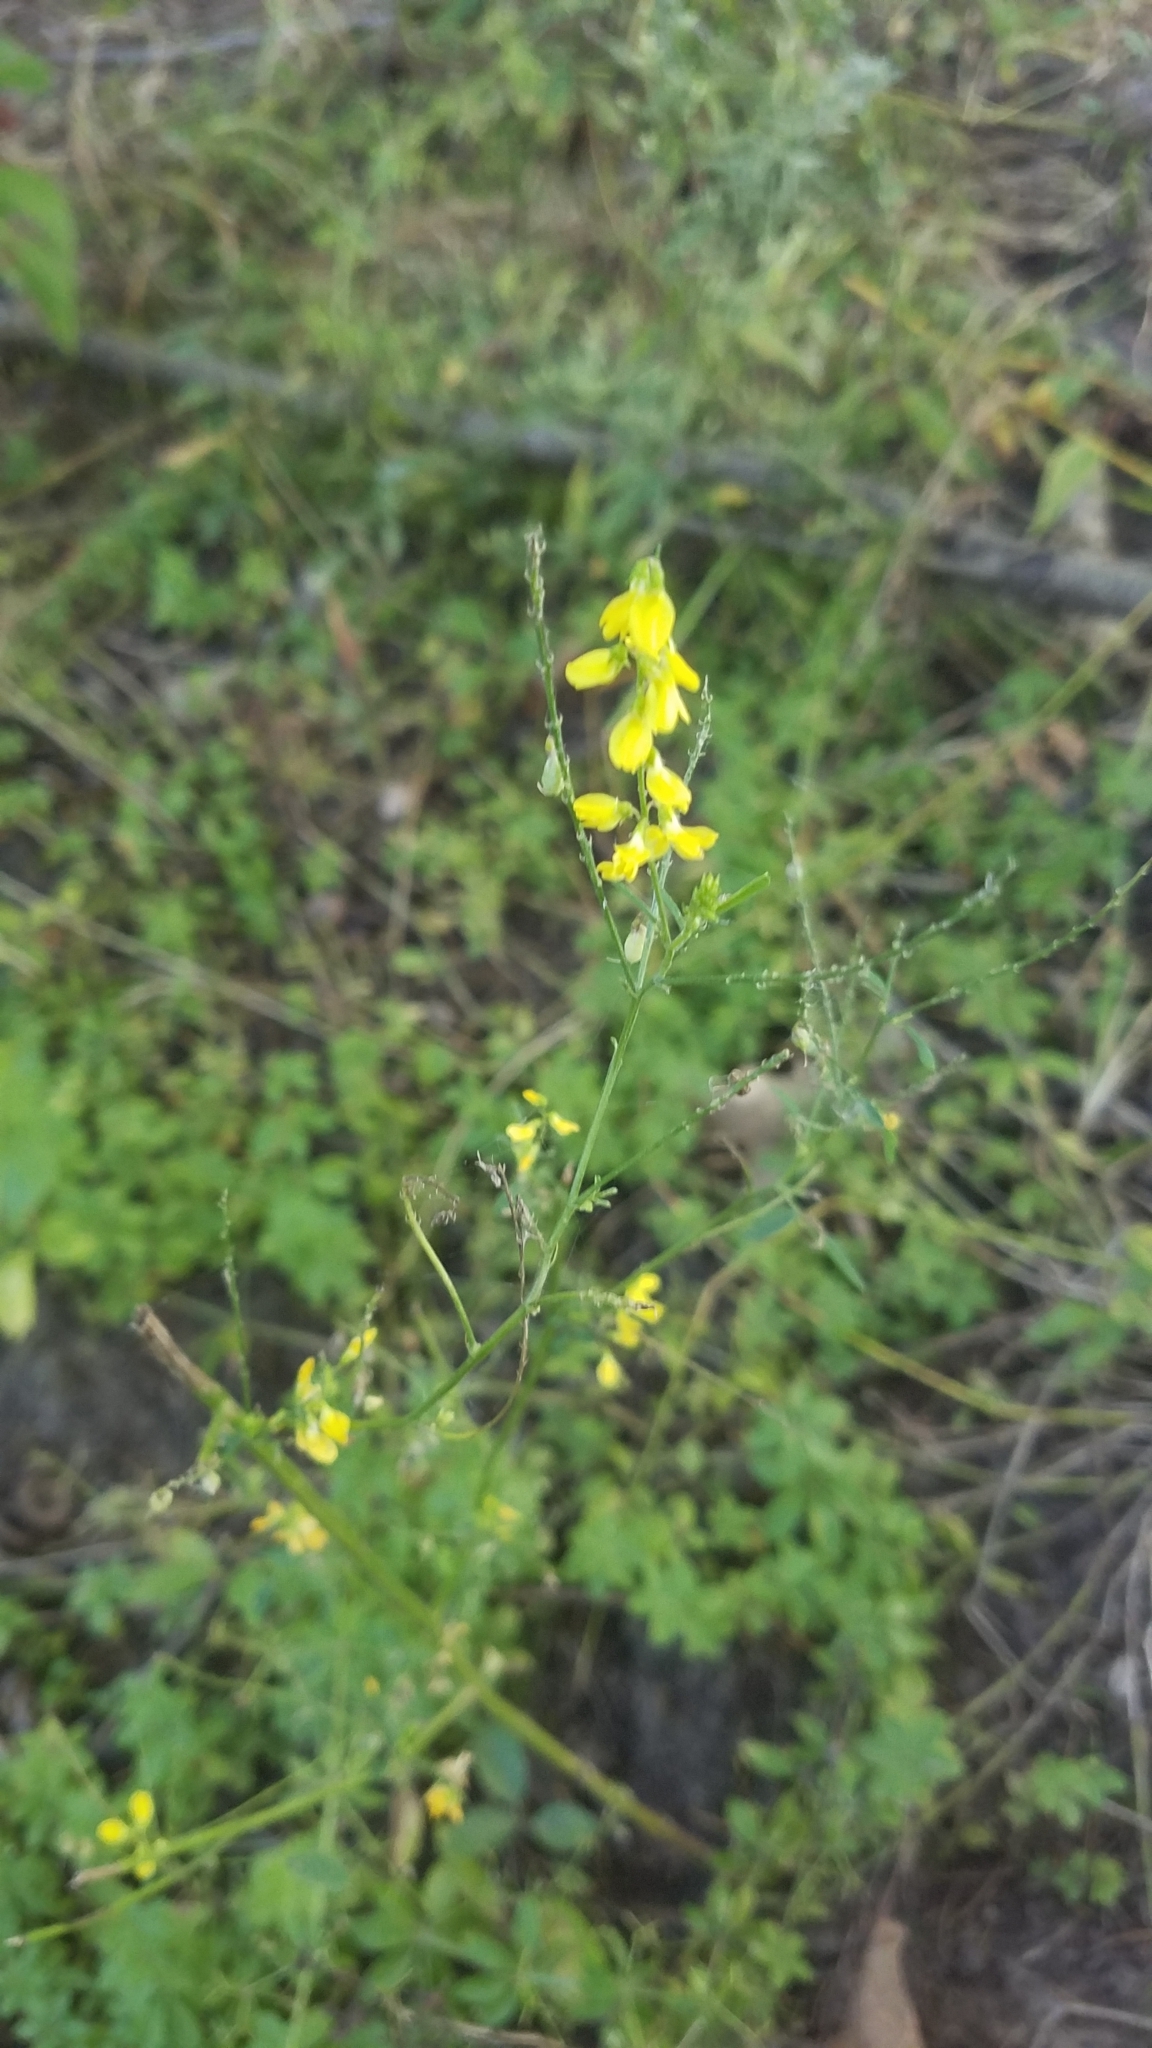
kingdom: Plantae
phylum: Tracheophyta
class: Magnoliopsida
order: Fabales
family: Fabaceae
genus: Melilotus
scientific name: Melilotus officinalis
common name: Sweetclover
